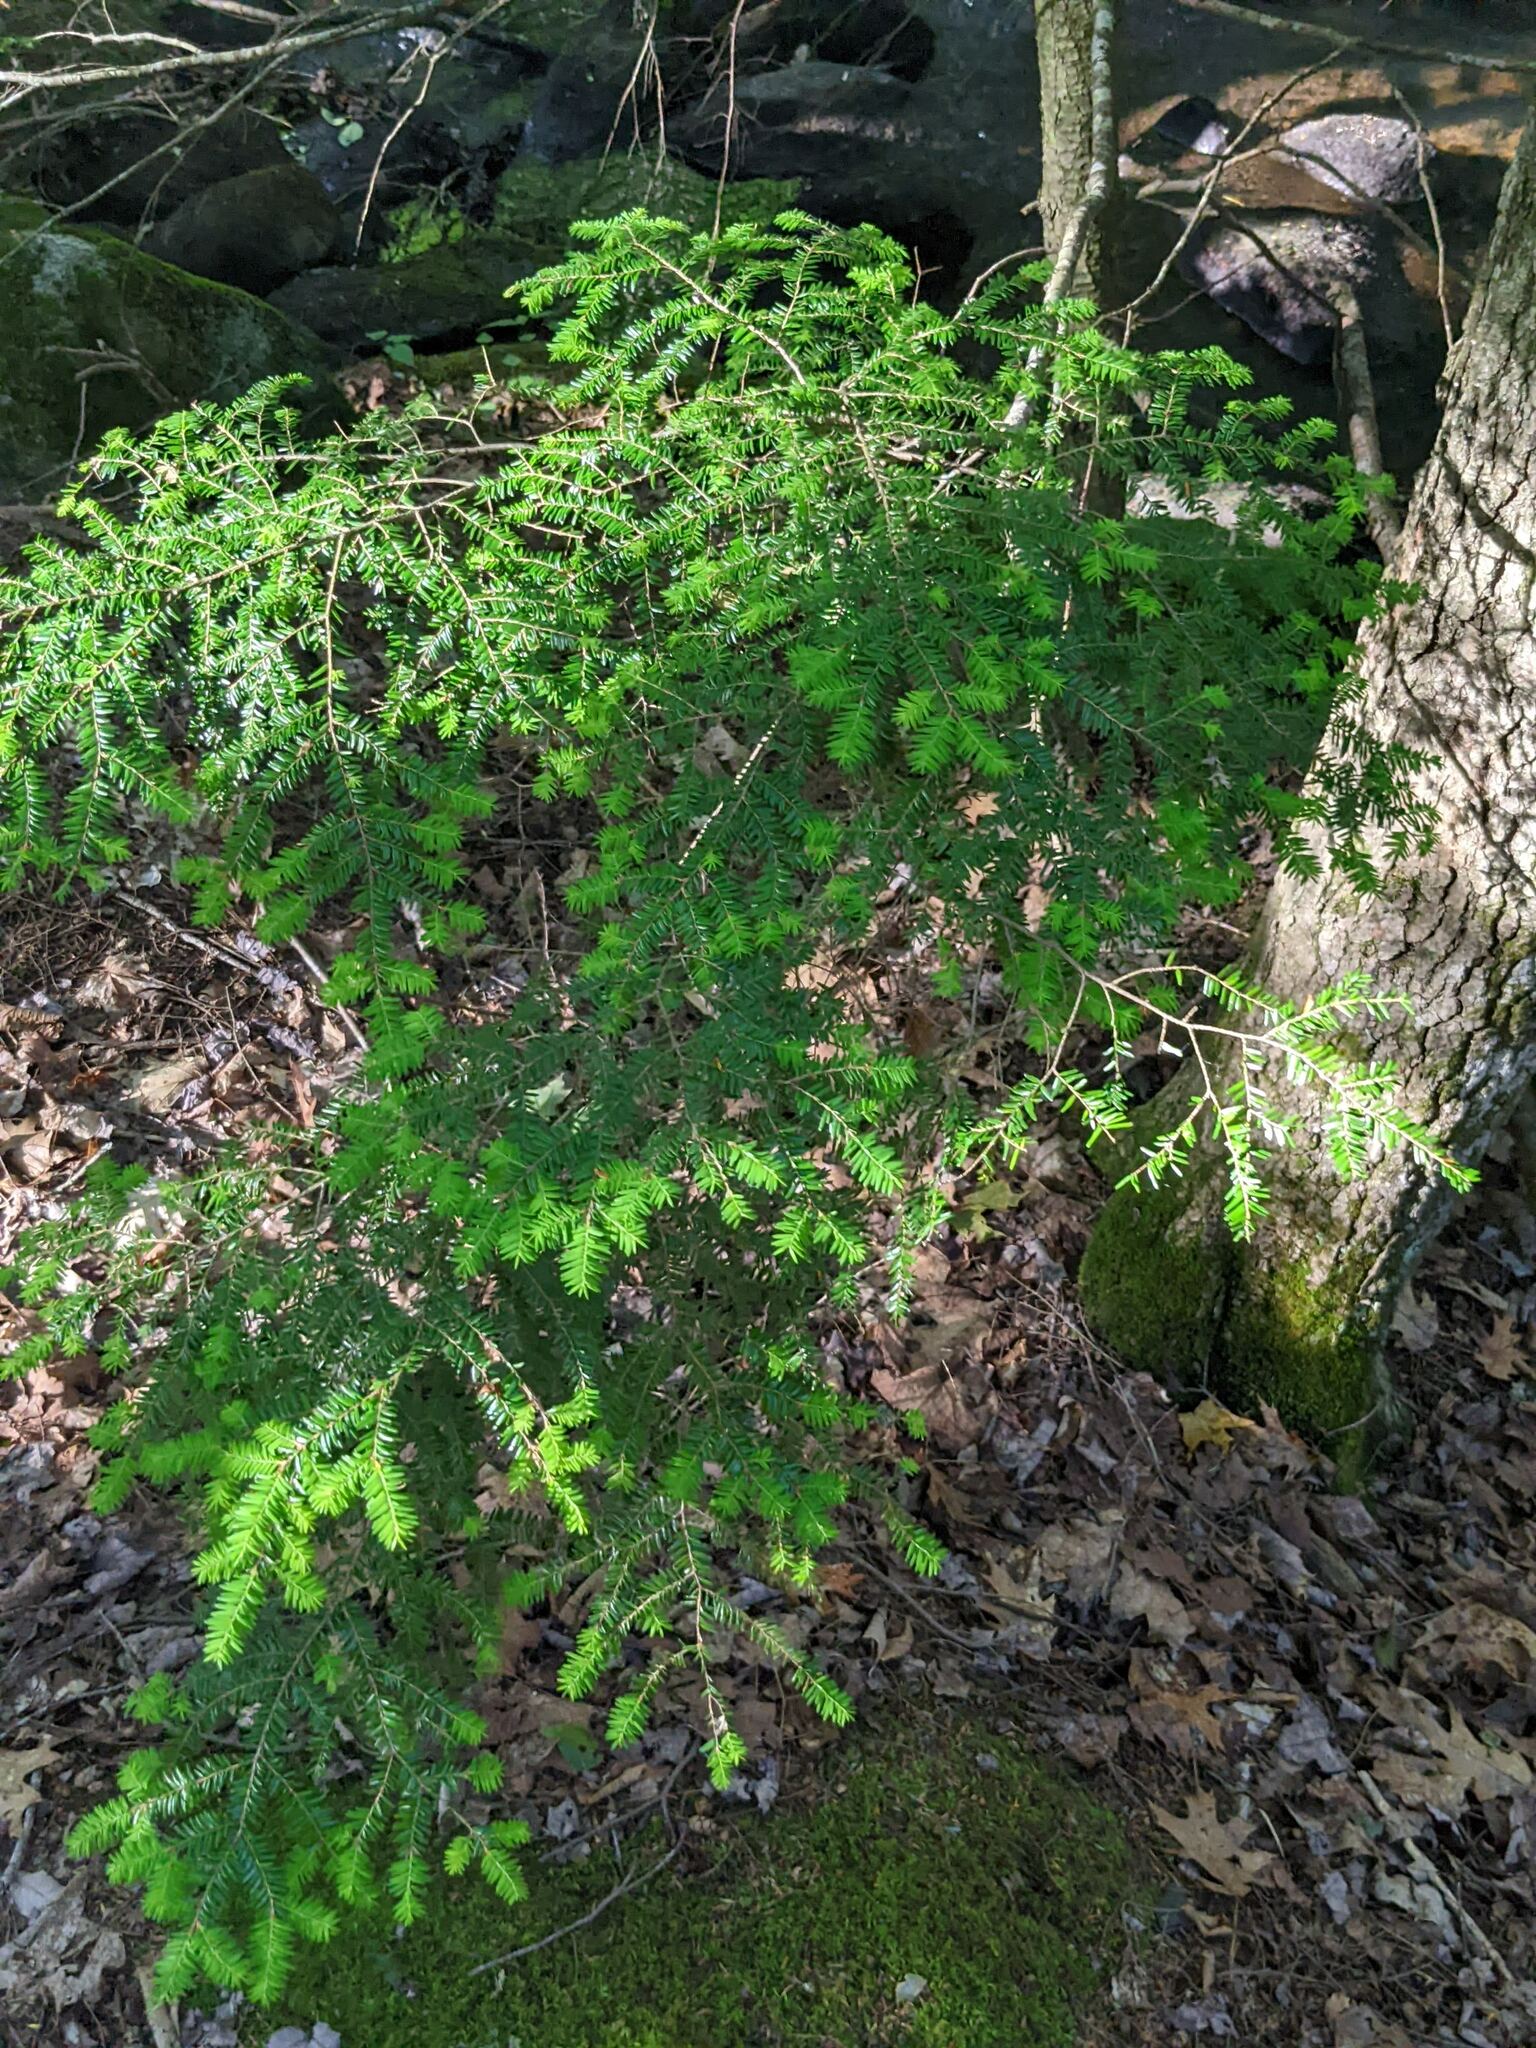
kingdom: Plantae
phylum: Tracheophyta
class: Pinopsida
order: Pinales
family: Pinaceae
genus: Tsuga
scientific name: Tsuga canadensis
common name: Eastern hemlock
